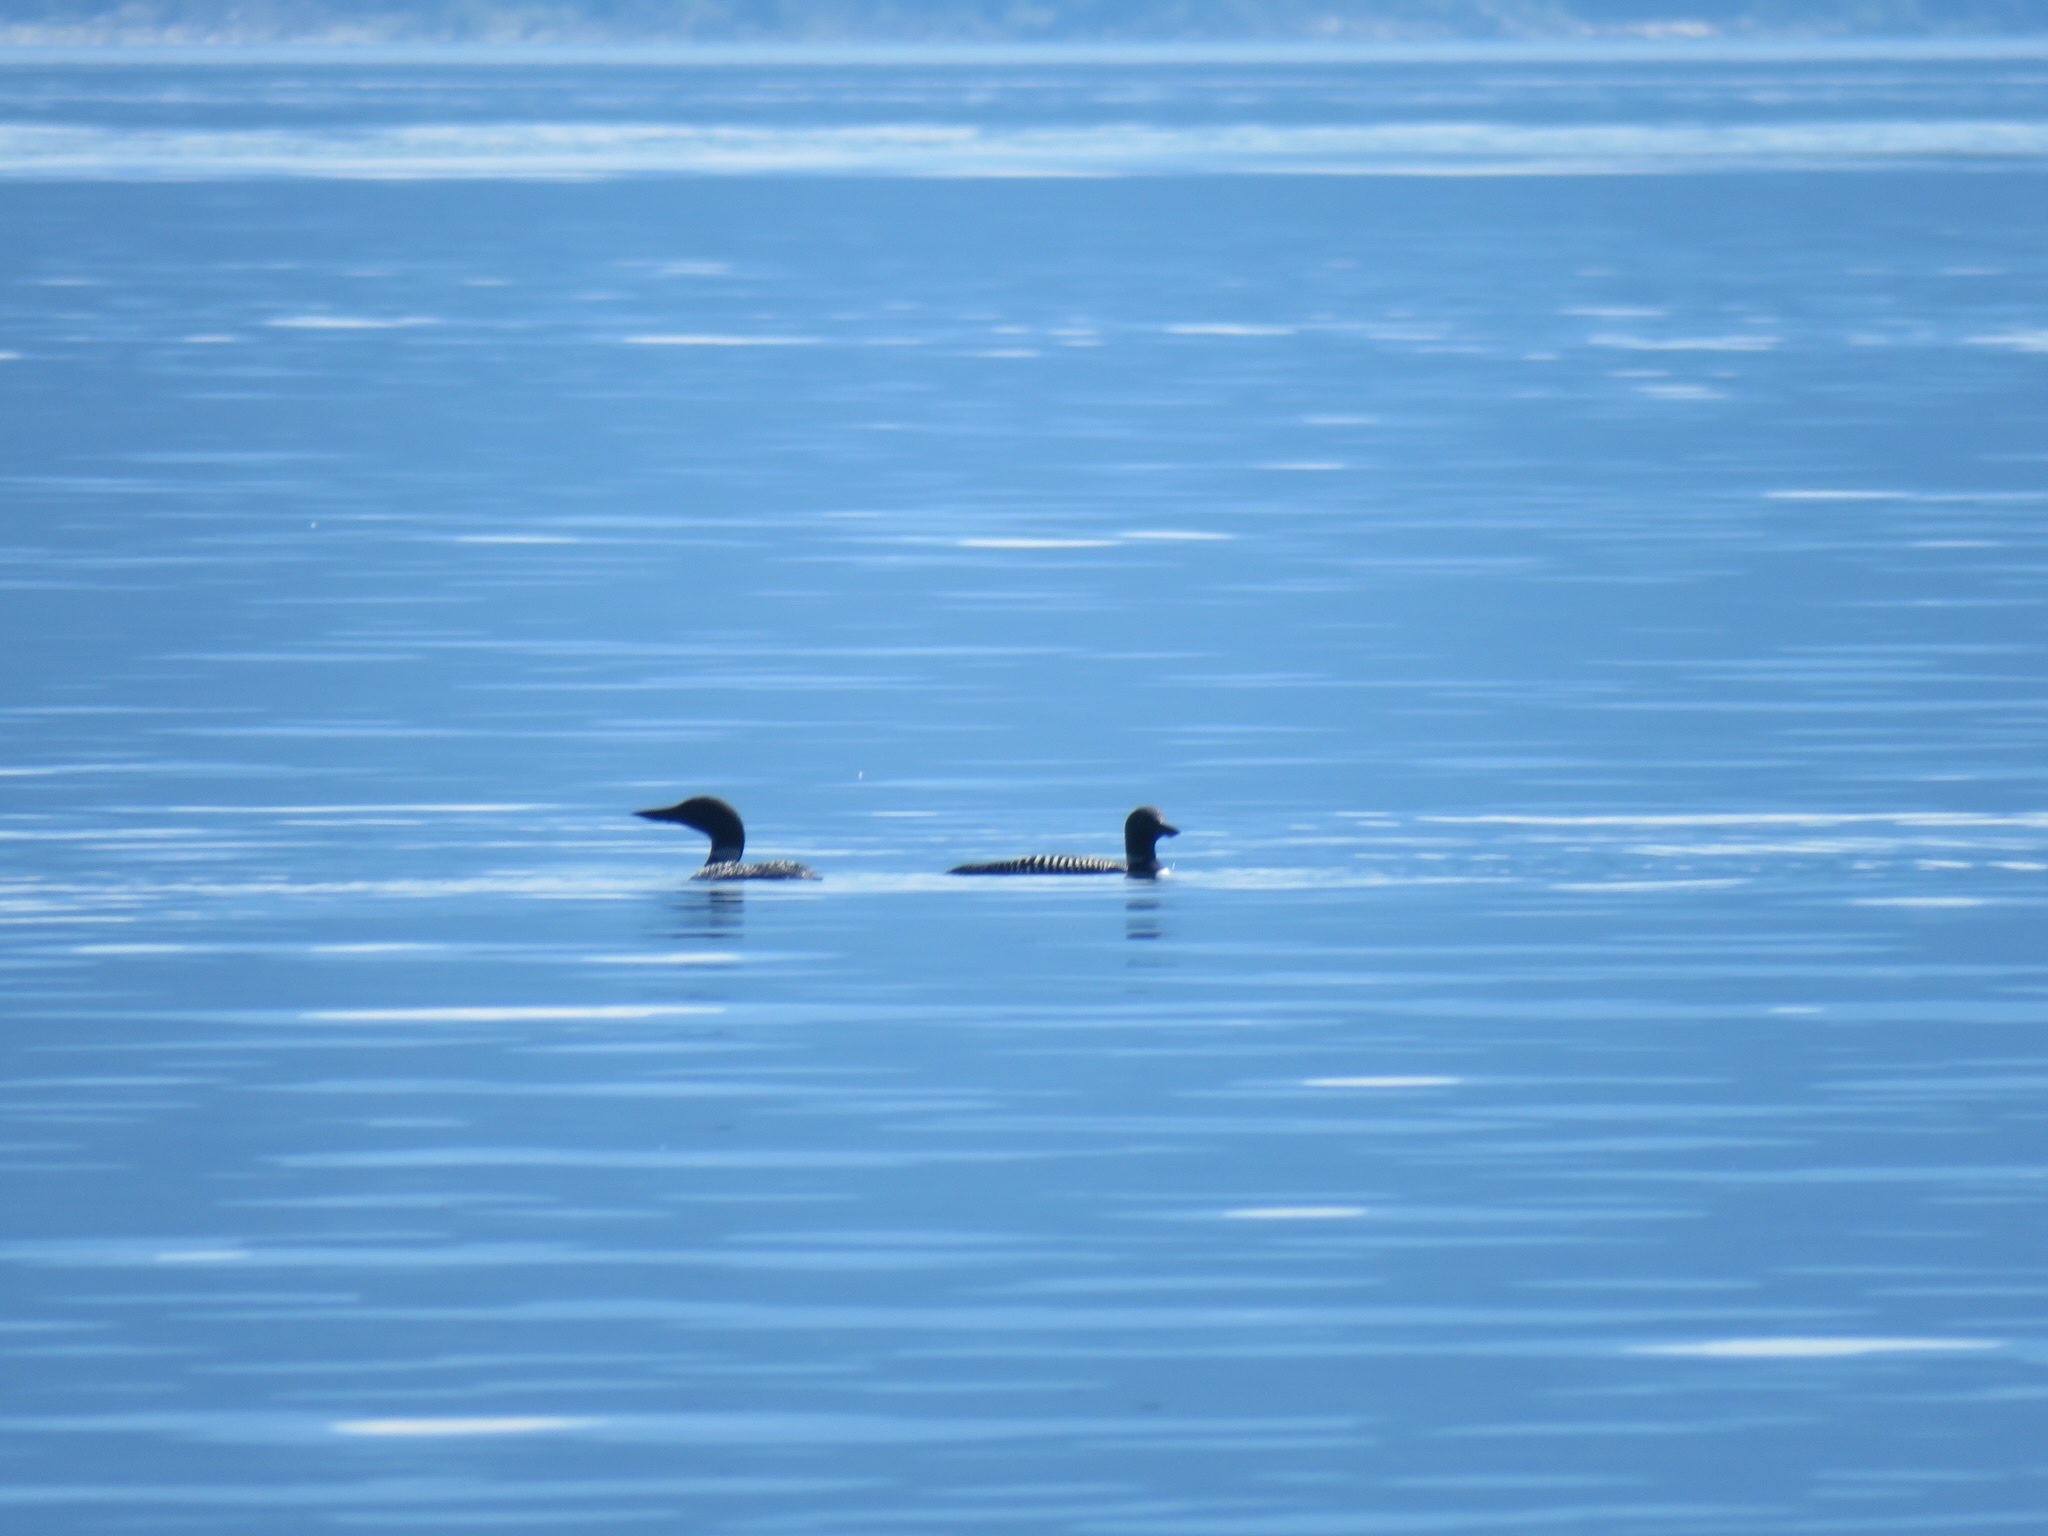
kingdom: Animalia
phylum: Chordata
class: Aves
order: Gaviiformes
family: Gaviidae
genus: Gavia
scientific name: Gavia immer
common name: Common loon
